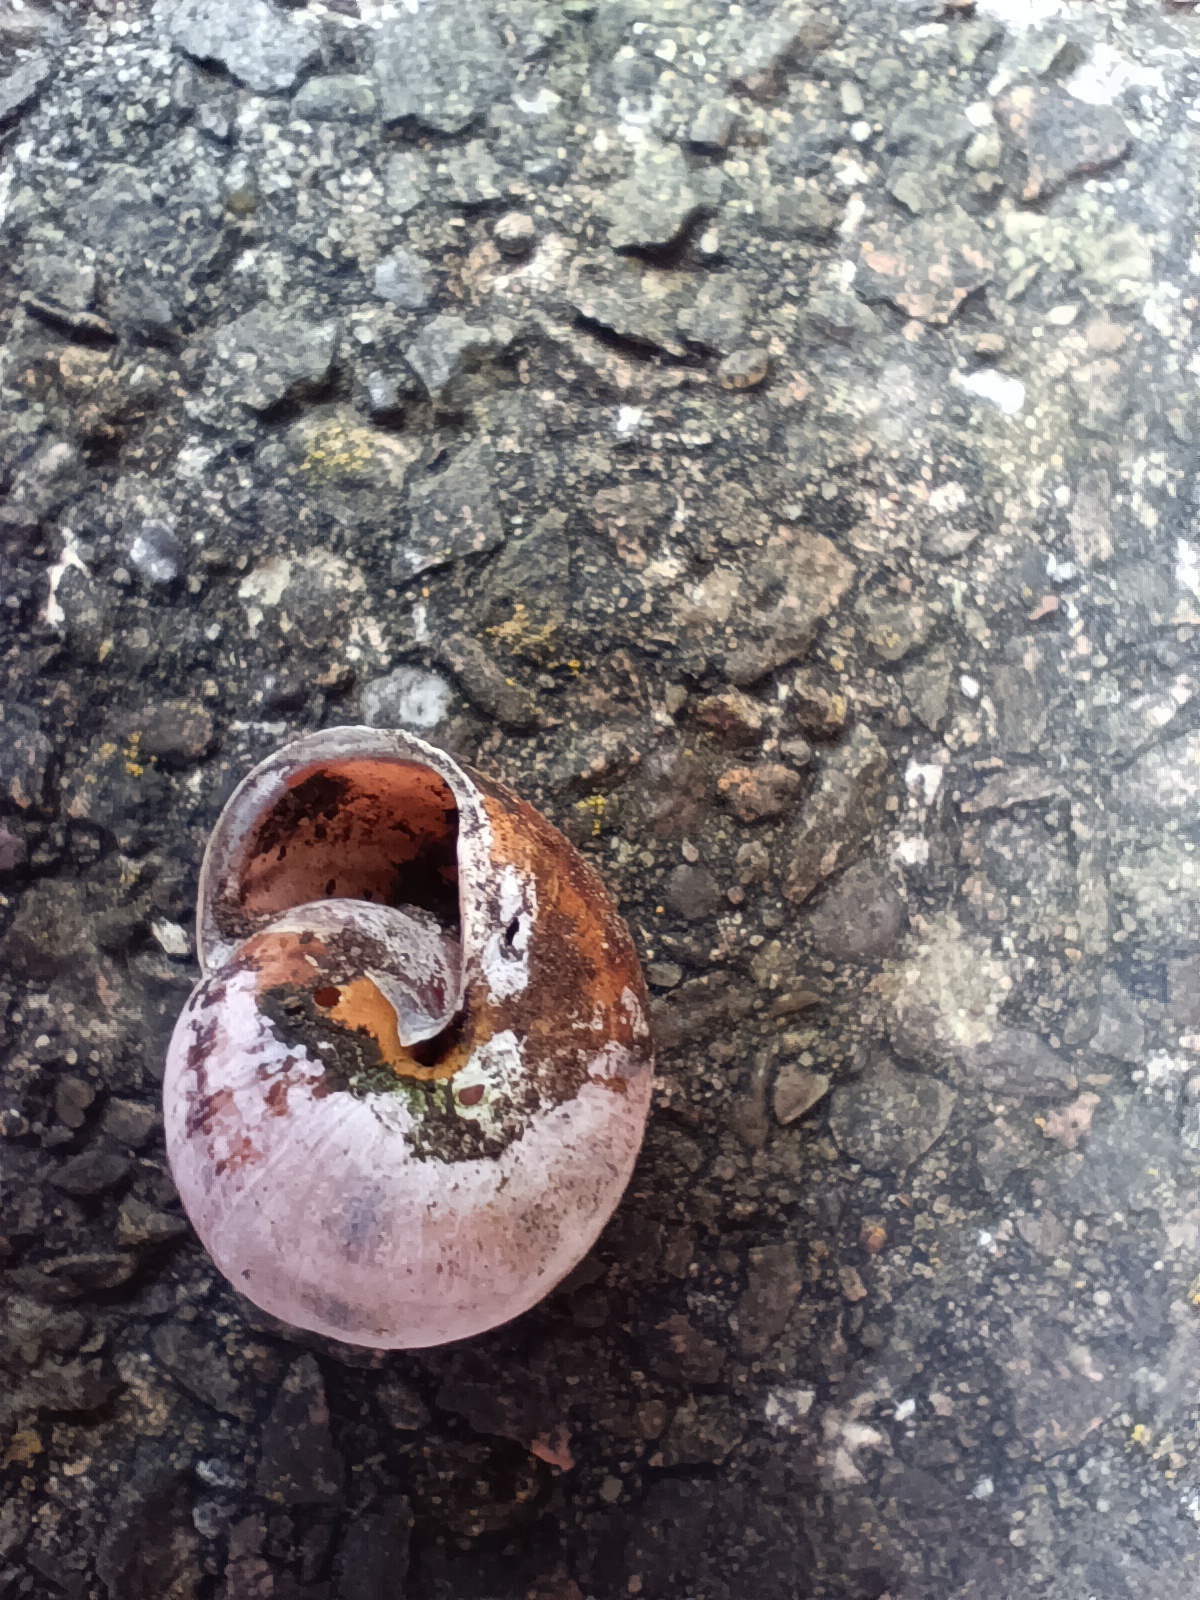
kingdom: Animalia
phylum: Mollusca
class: Gastropoda
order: Stylommatophora
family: Helicidae
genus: Cepaea
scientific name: Cepaea nemoralis
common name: Grovesnail
